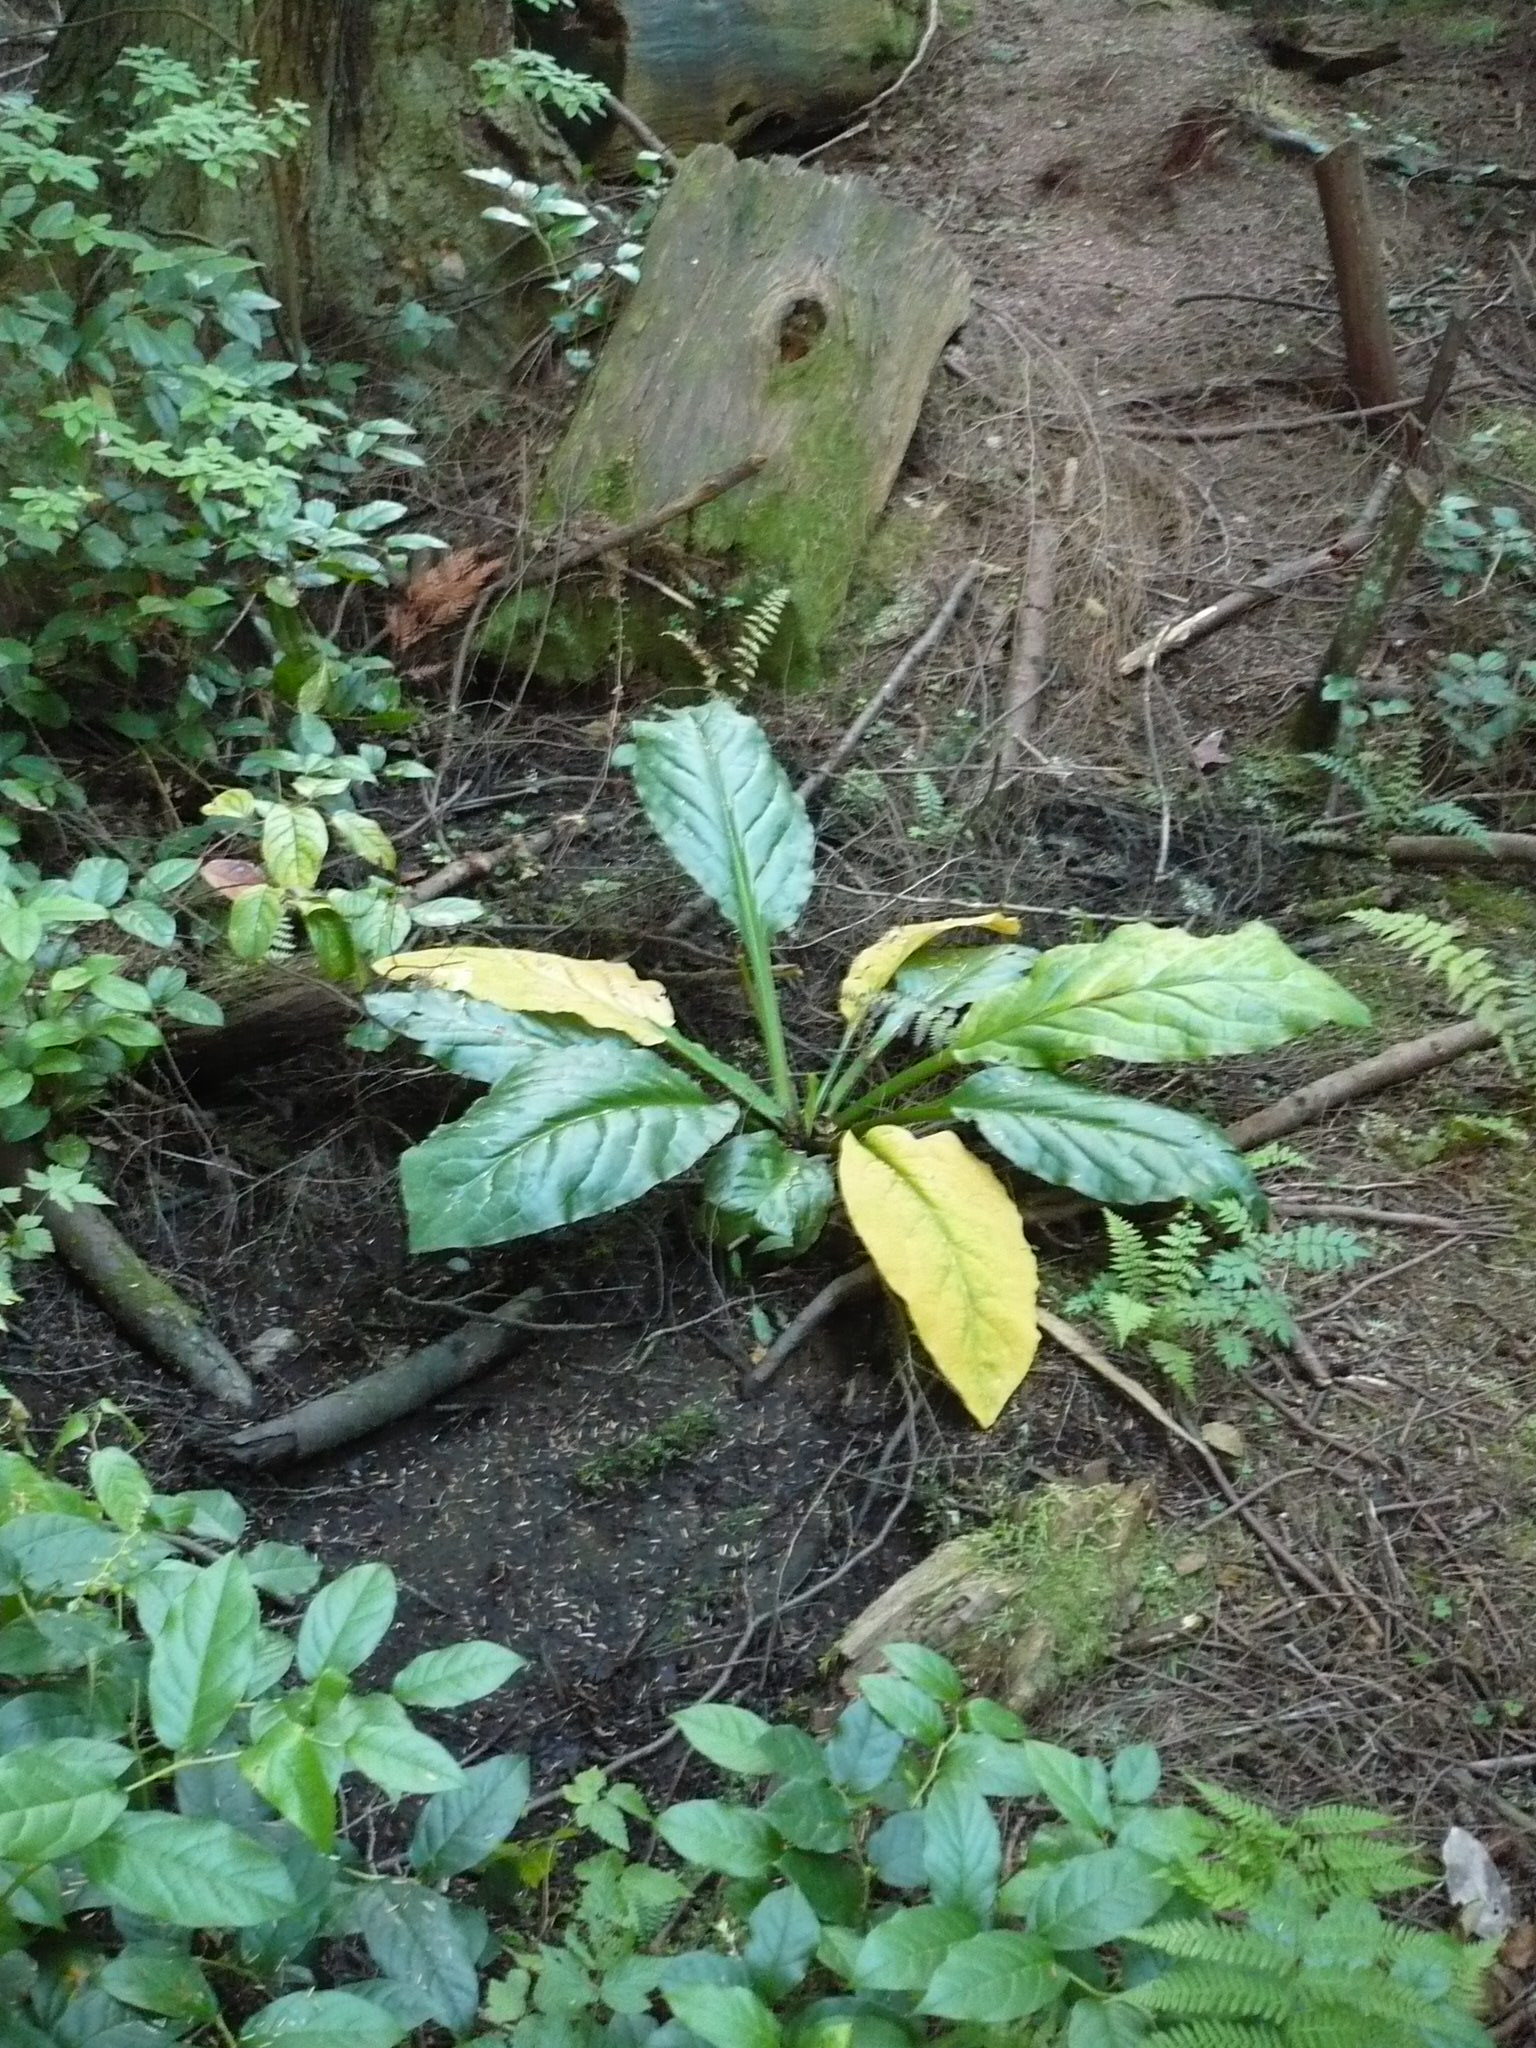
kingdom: Plantae
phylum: Tracheophyta
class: Liliopsida
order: Alismatales
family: Araceae
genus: Lysichiton
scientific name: Lysichiton americanus
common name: American skunk cabbage
